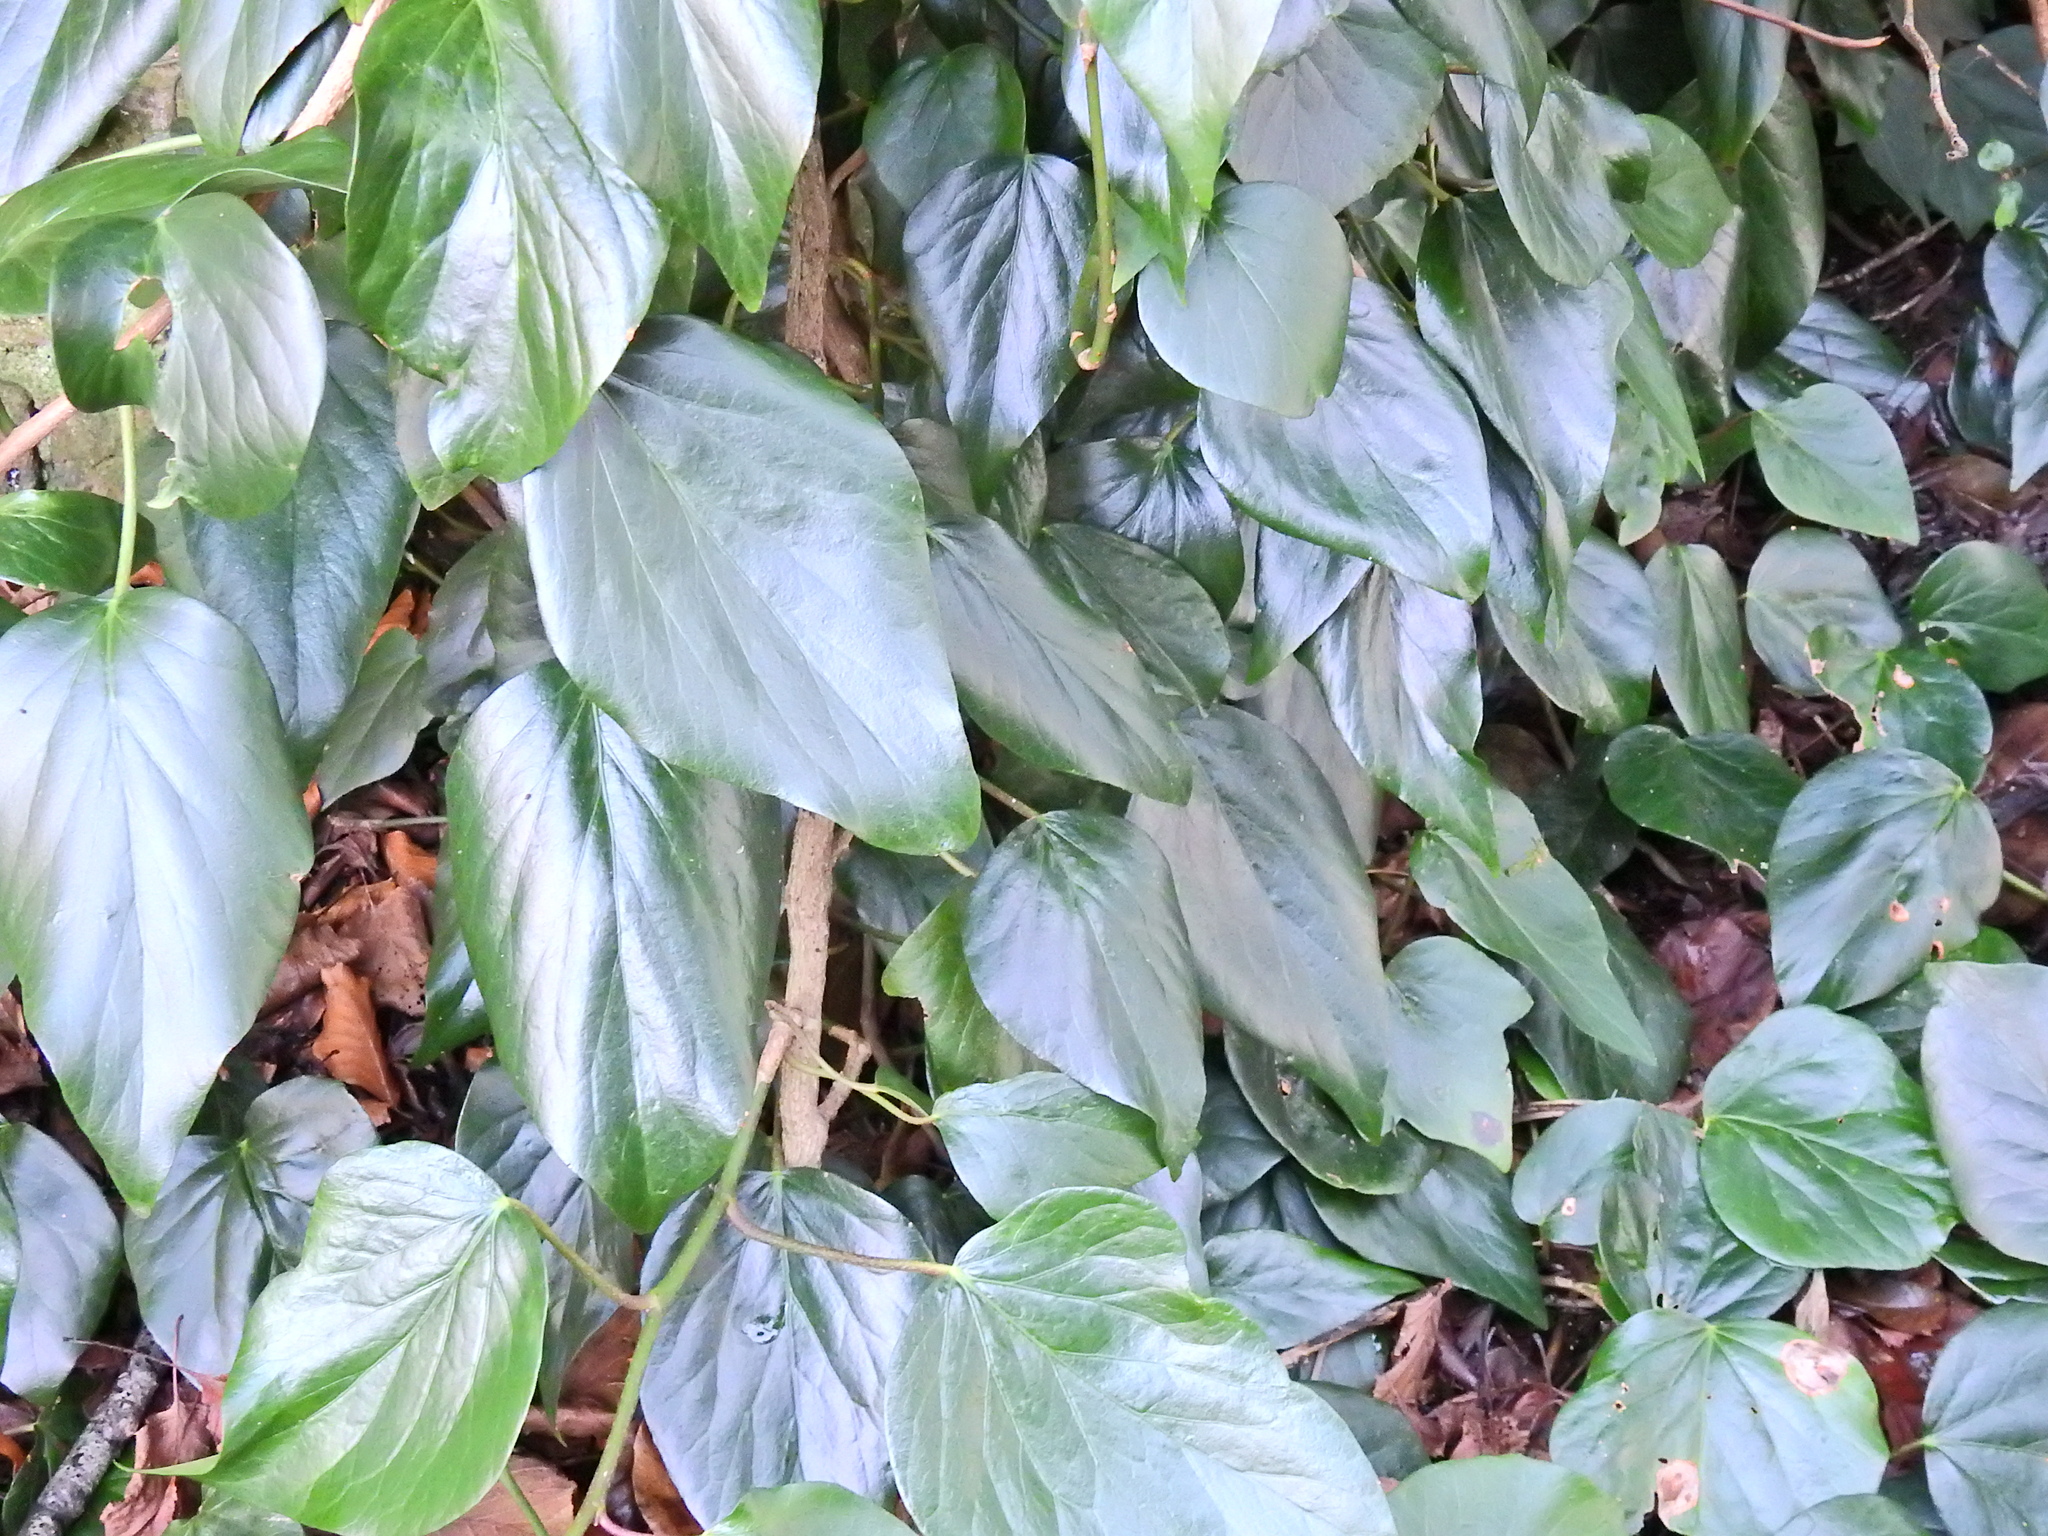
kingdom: Plantae
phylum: Tracheophyta
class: Magnoliopsida
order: Apiales
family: Araliaceae
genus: Hedera
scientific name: Hedera colchica
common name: Persian ivy
